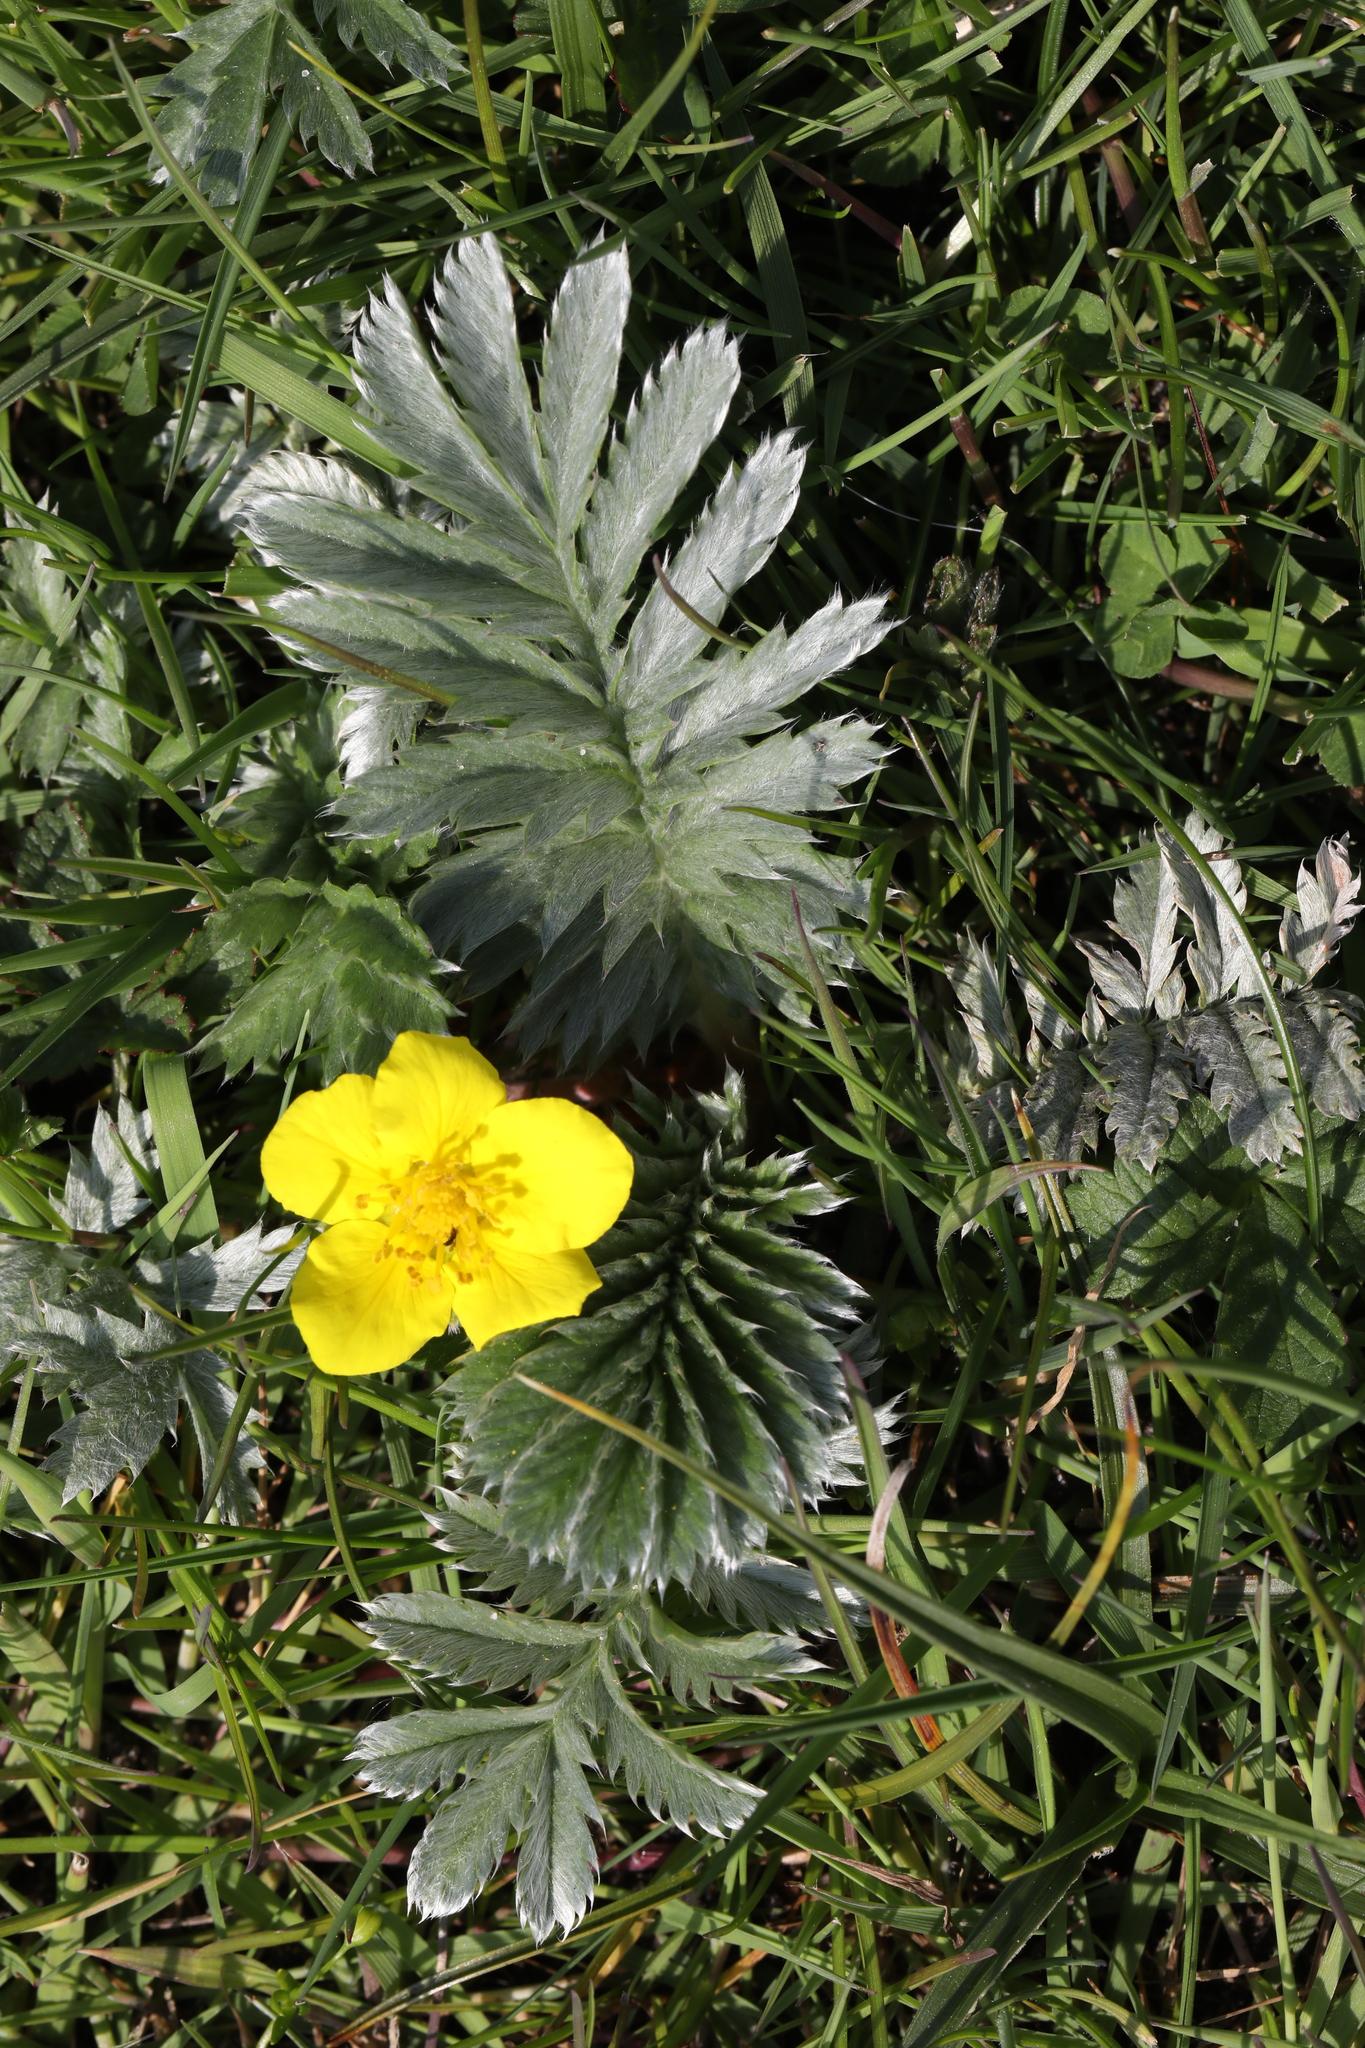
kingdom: Plantae
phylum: Tracheophyta
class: Magnoliopsida
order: Rosales
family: Rosaceae
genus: Argentina
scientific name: Argentina anserina
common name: Common silverweed
